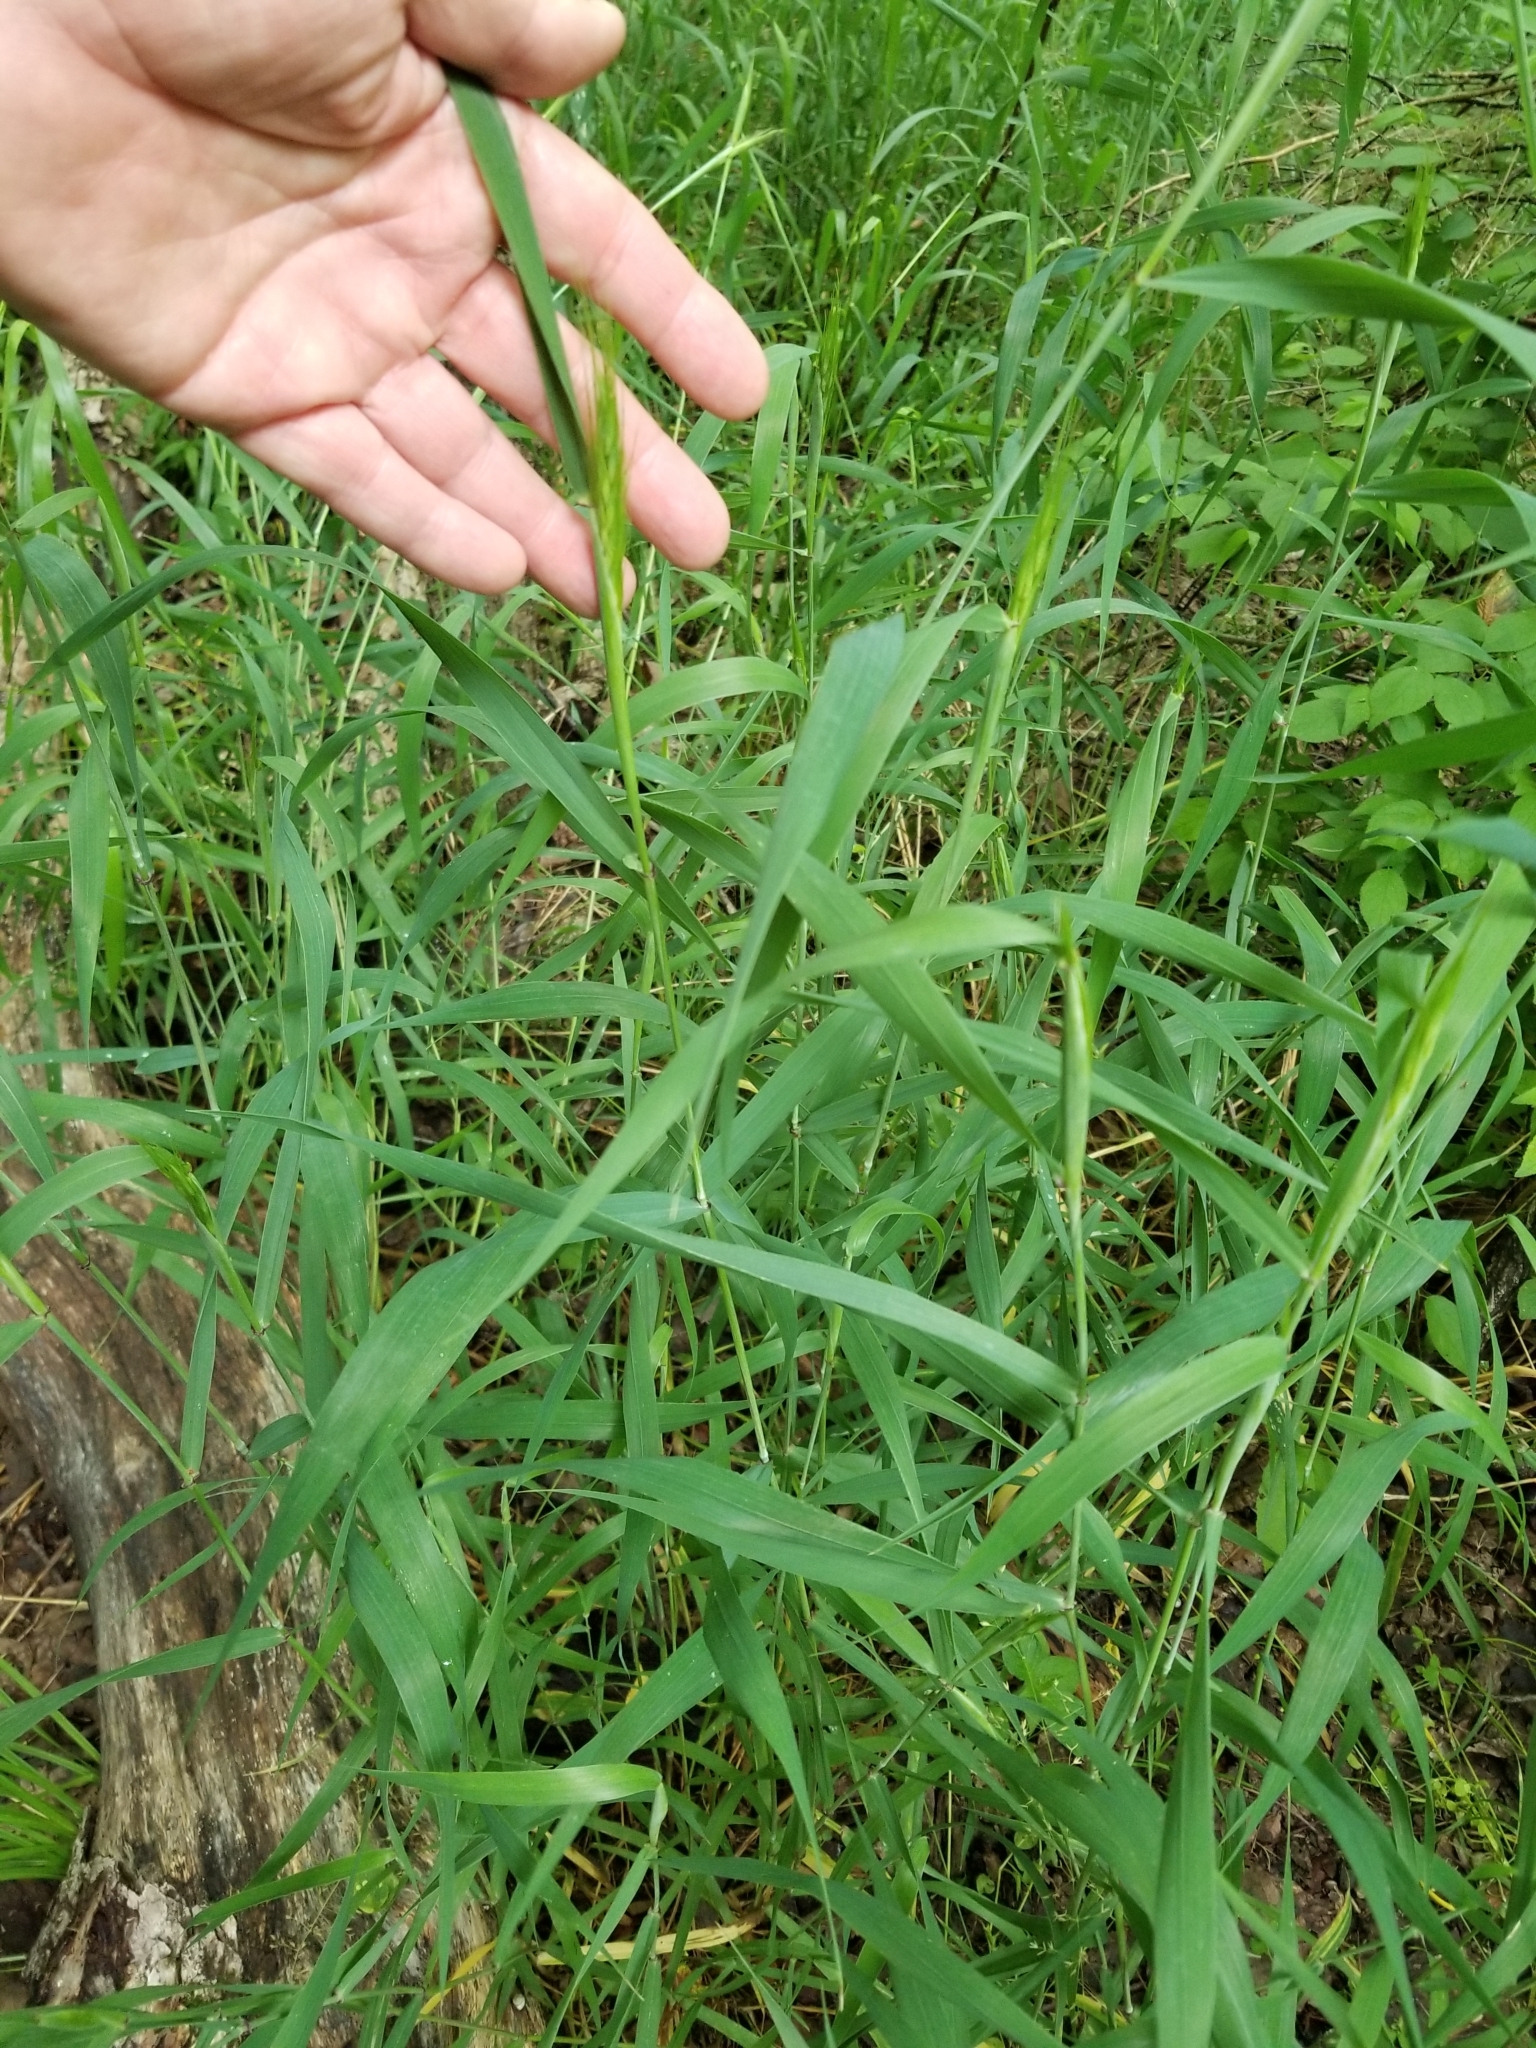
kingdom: Plantae
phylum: Tracheophyta
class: Liliopsida
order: Poales
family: Poaceae
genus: Elymus
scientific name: Elymus virginicus
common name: Common eastern wildrye
